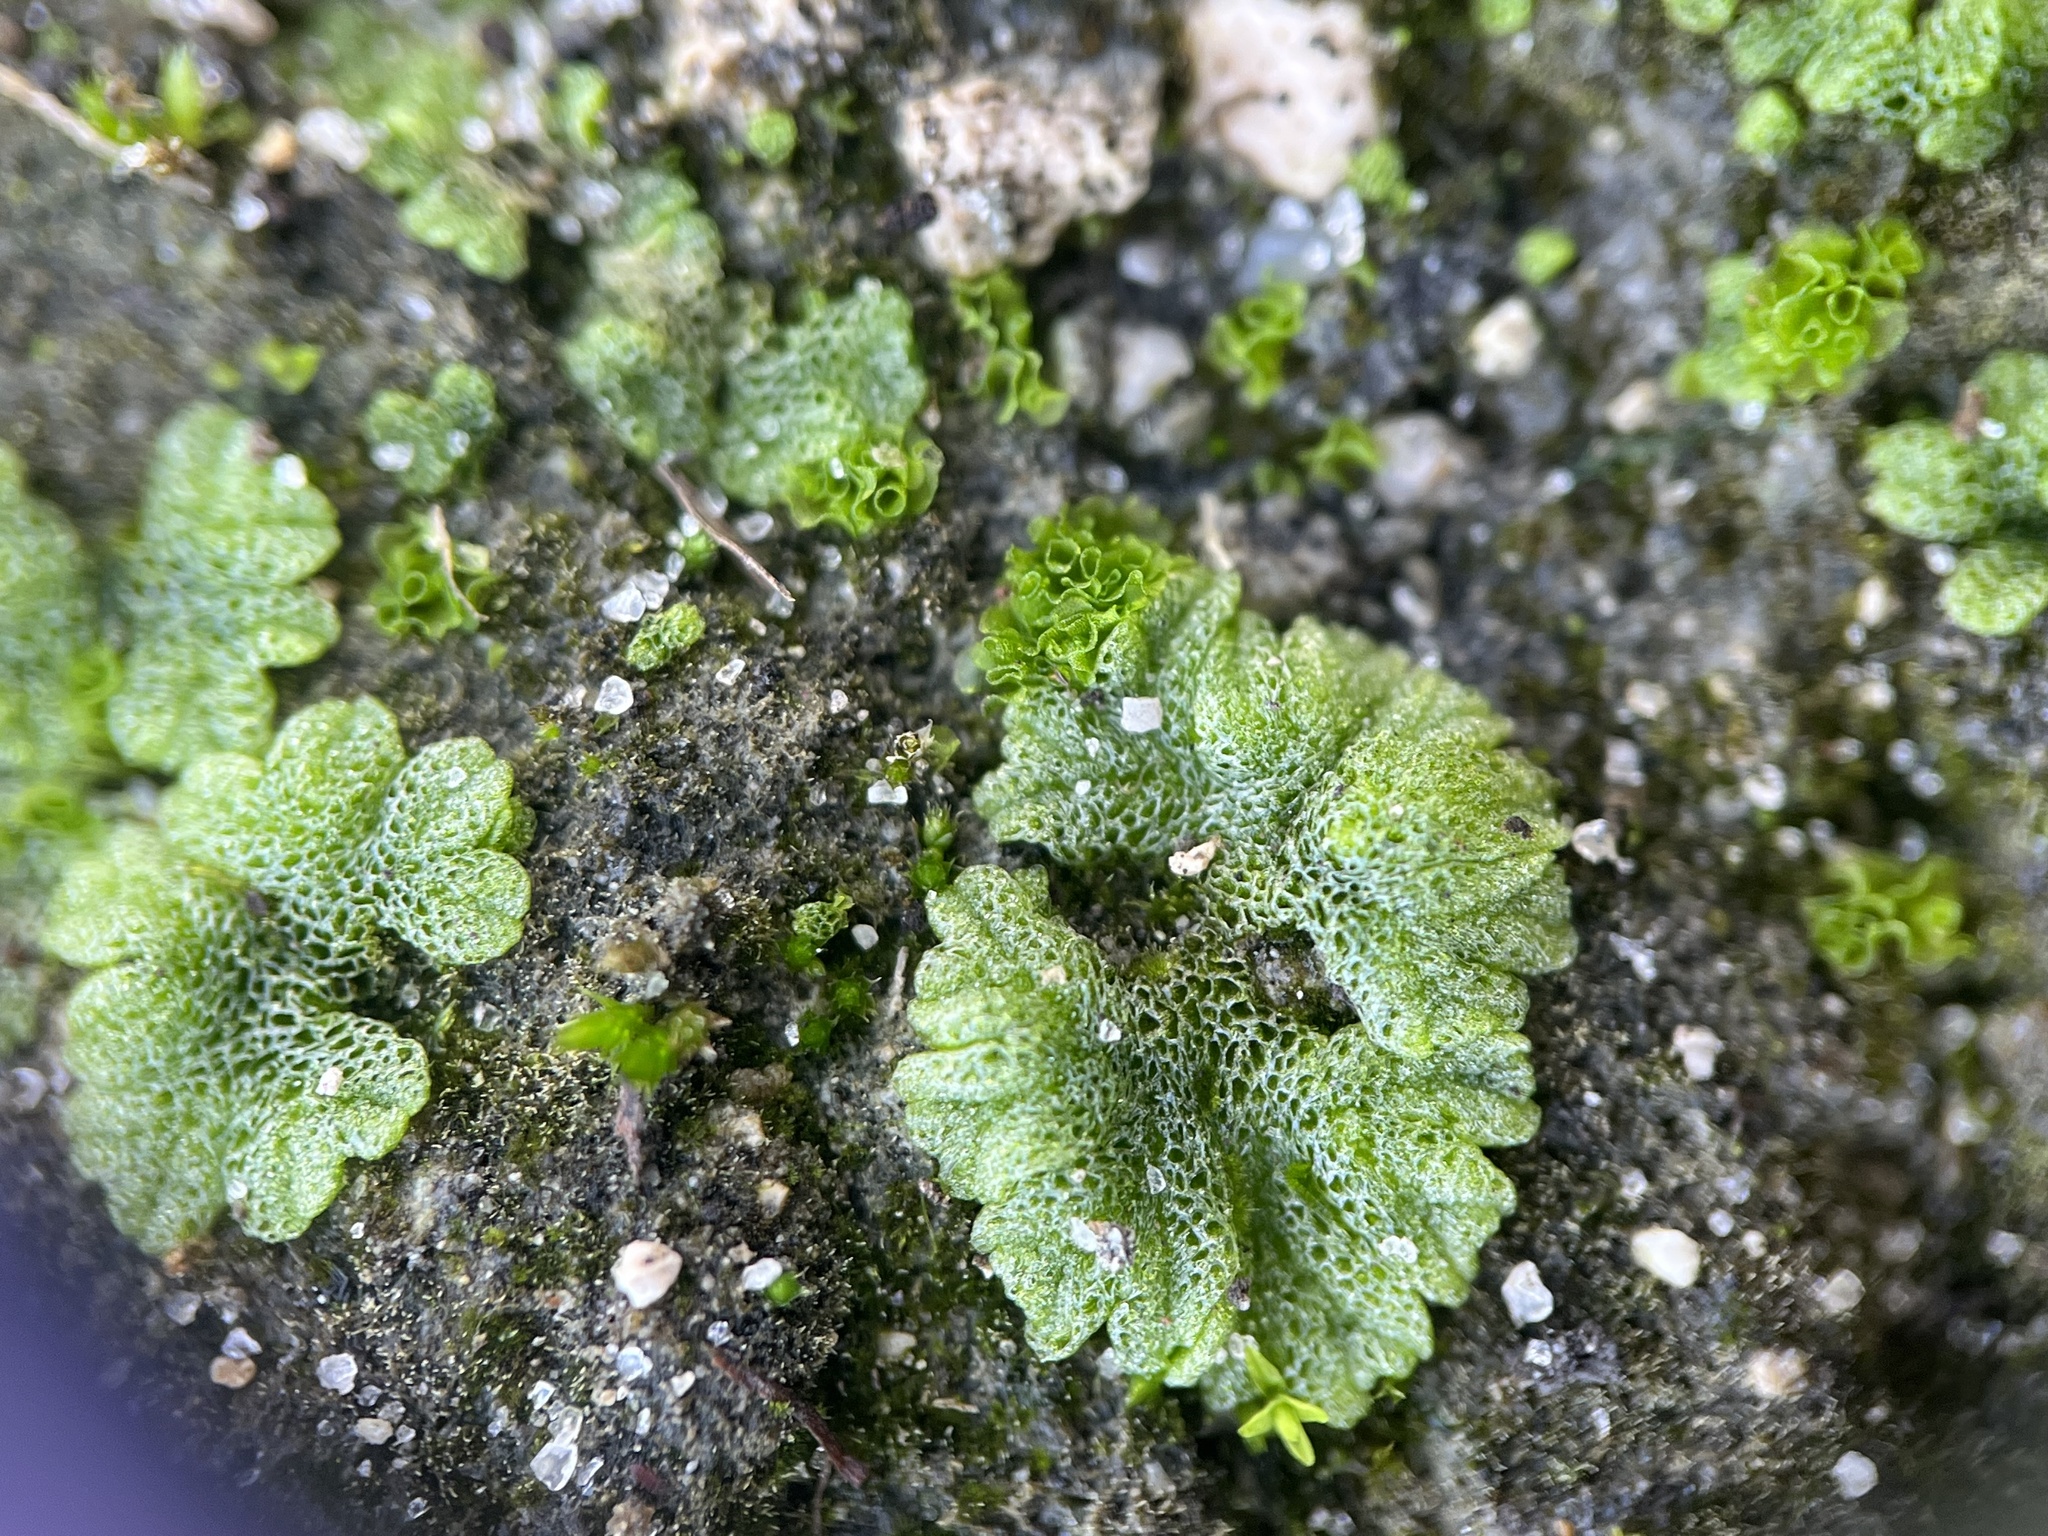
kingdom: Plantae
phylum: Marchantiophyta
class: Marchantiopsida
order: Marchantiales
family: Ricciaceae
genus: Riccia
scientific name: Riccia cavernosa
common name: Cavernous crystalwort
